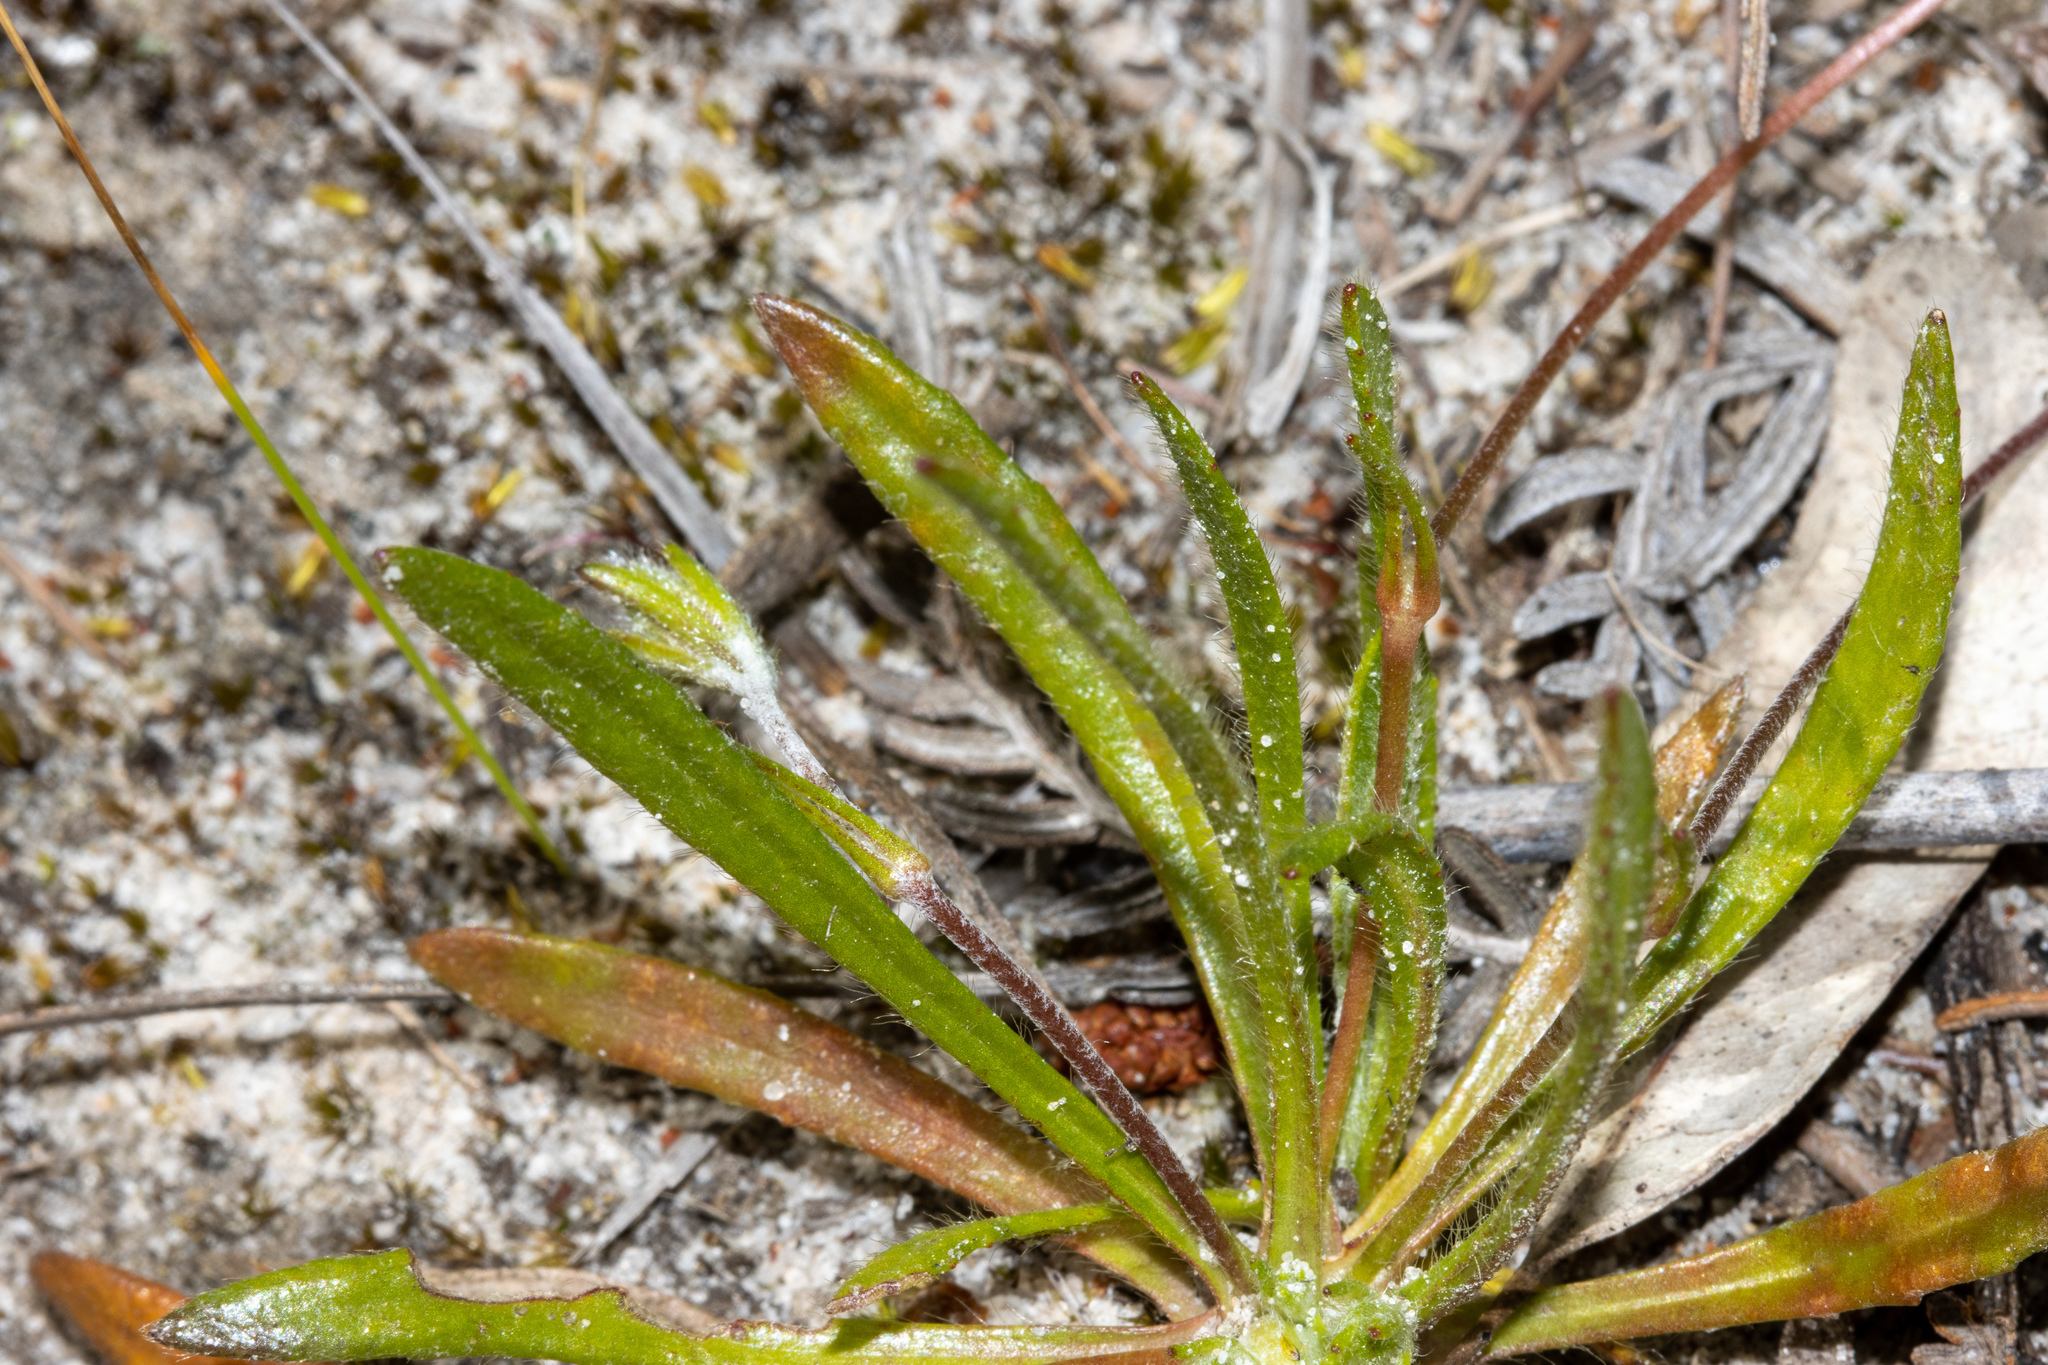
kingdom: Plantae
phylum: Tracheophyta
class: Magnoliopsida
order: Asterales
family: Goodeniaceae
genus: Goodenia
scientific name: Goodenia geniculata
